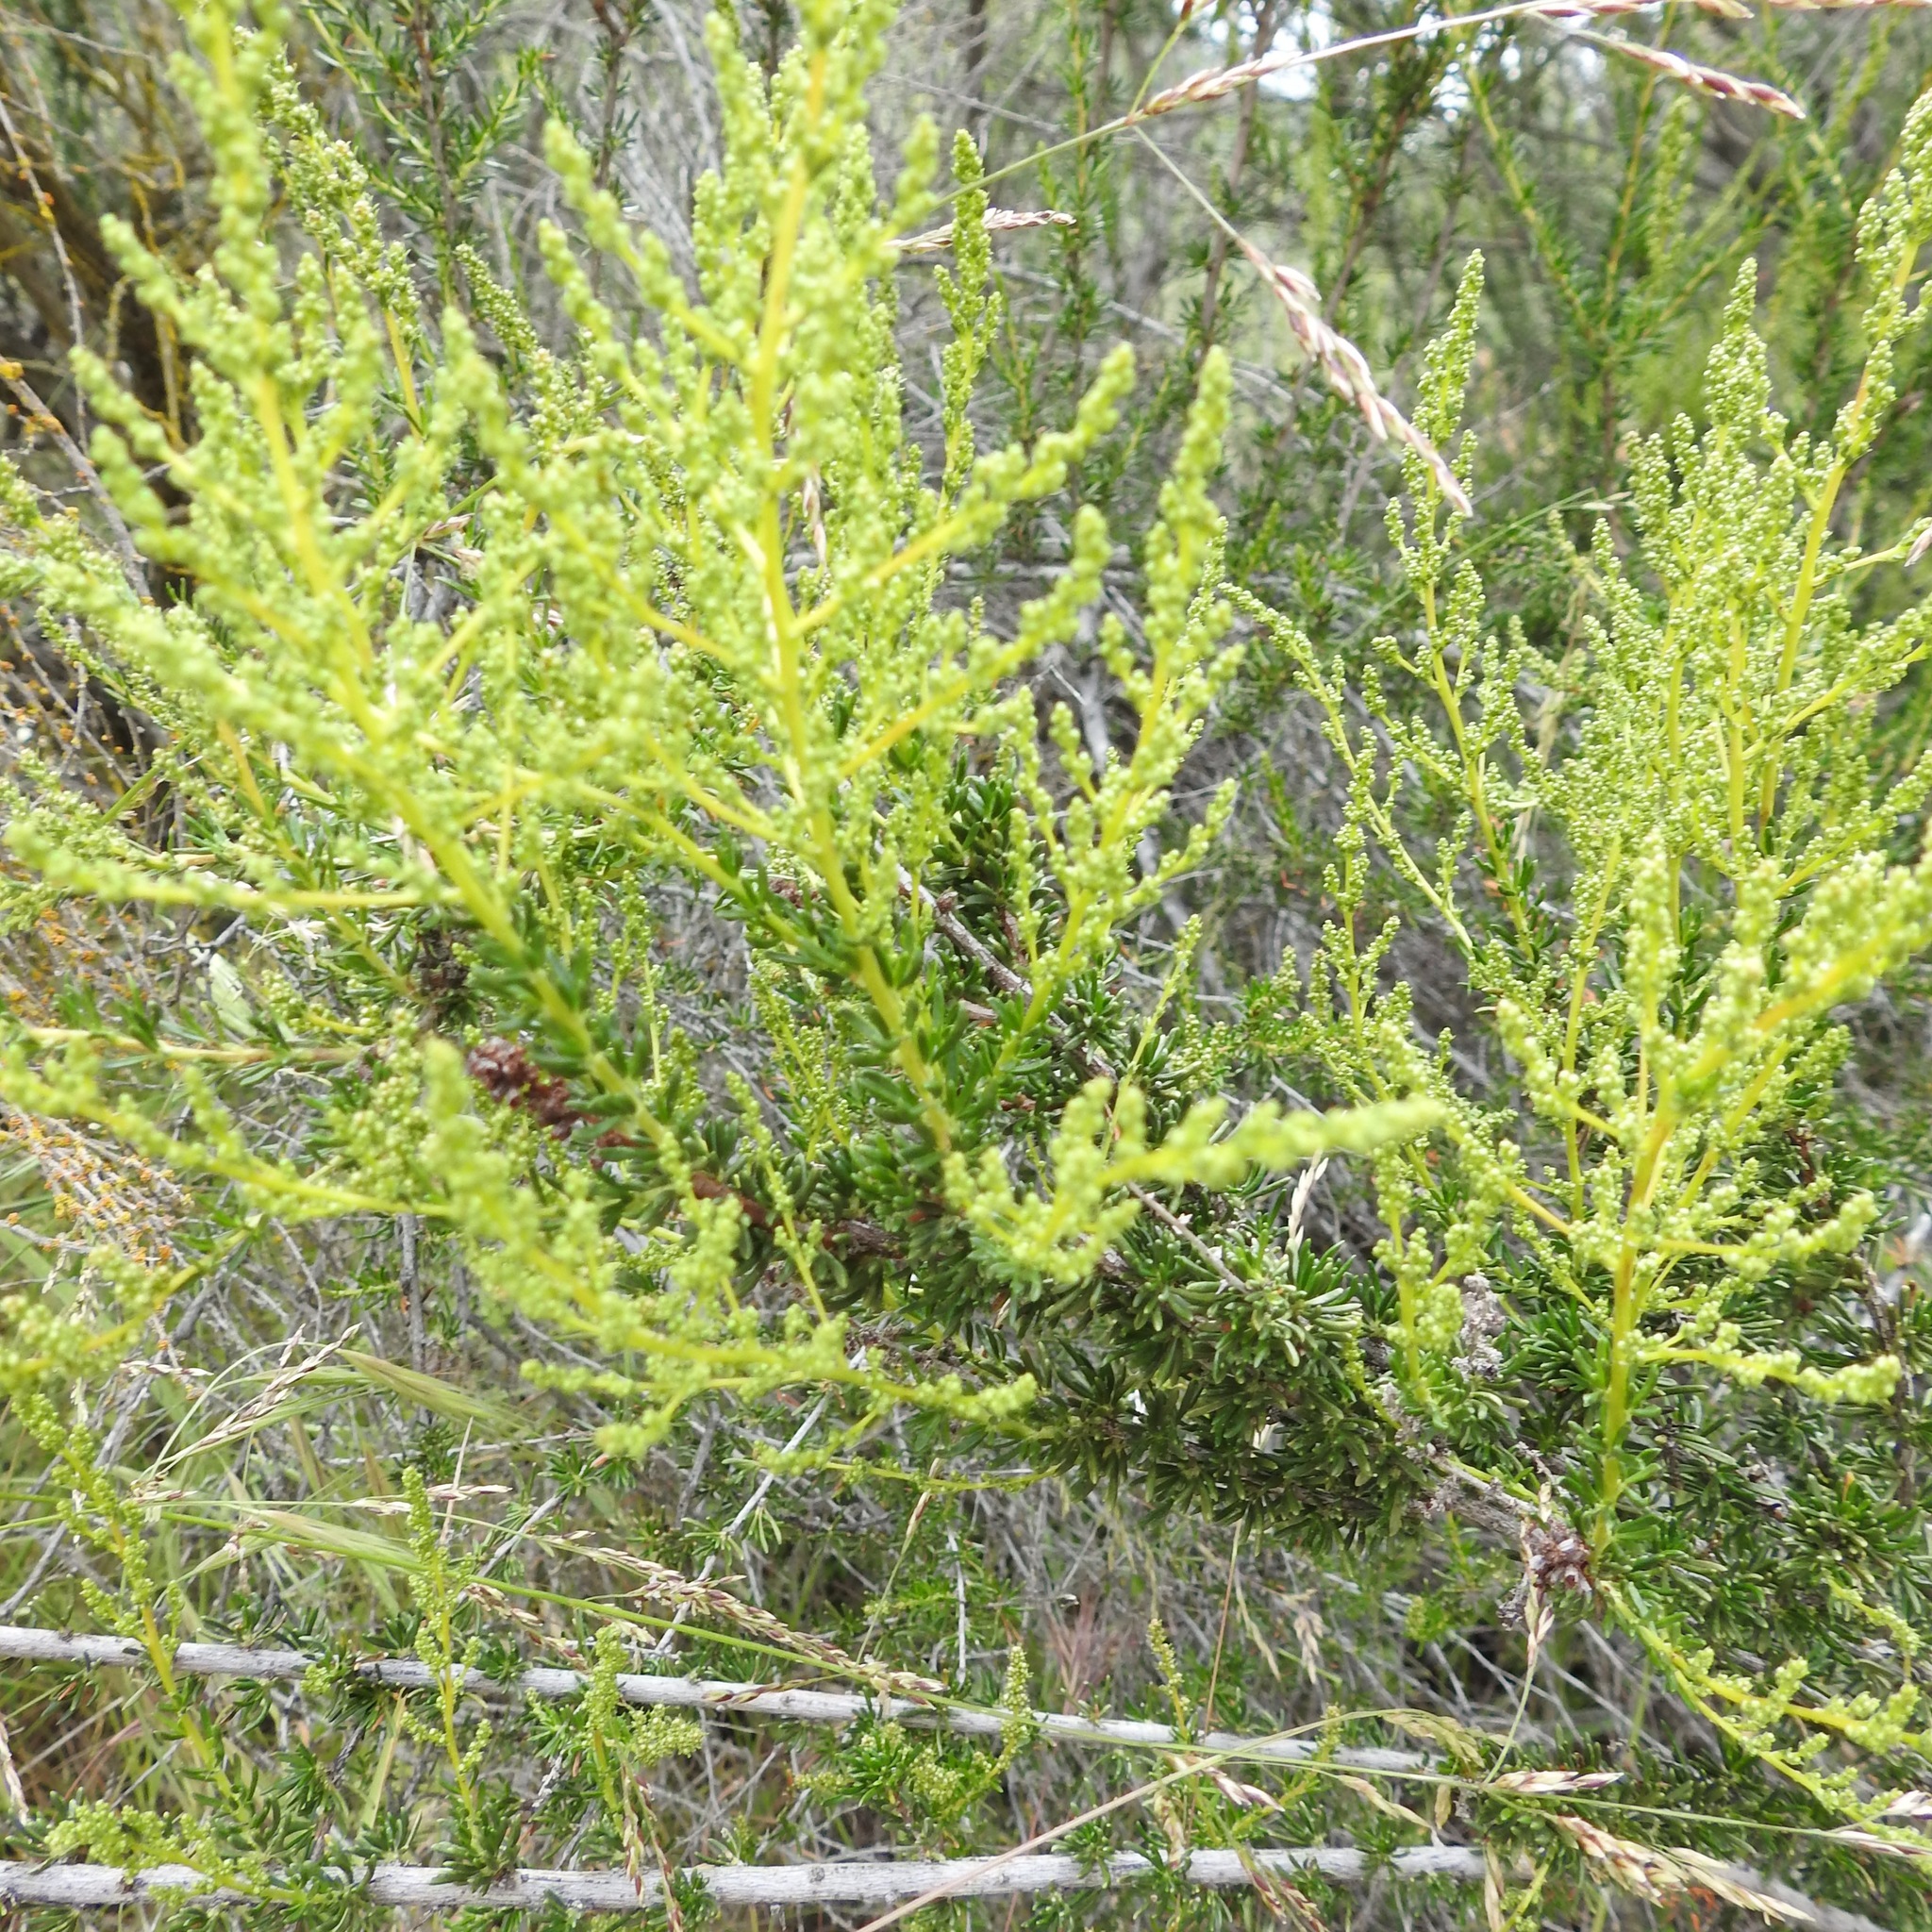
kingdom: Plantae
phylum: Tracheophyta
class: Magnoliopsida
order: Rosales
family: Rosaceae
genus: Adenostoma
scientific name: Adenostoma fasciculatum
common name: Chamise
